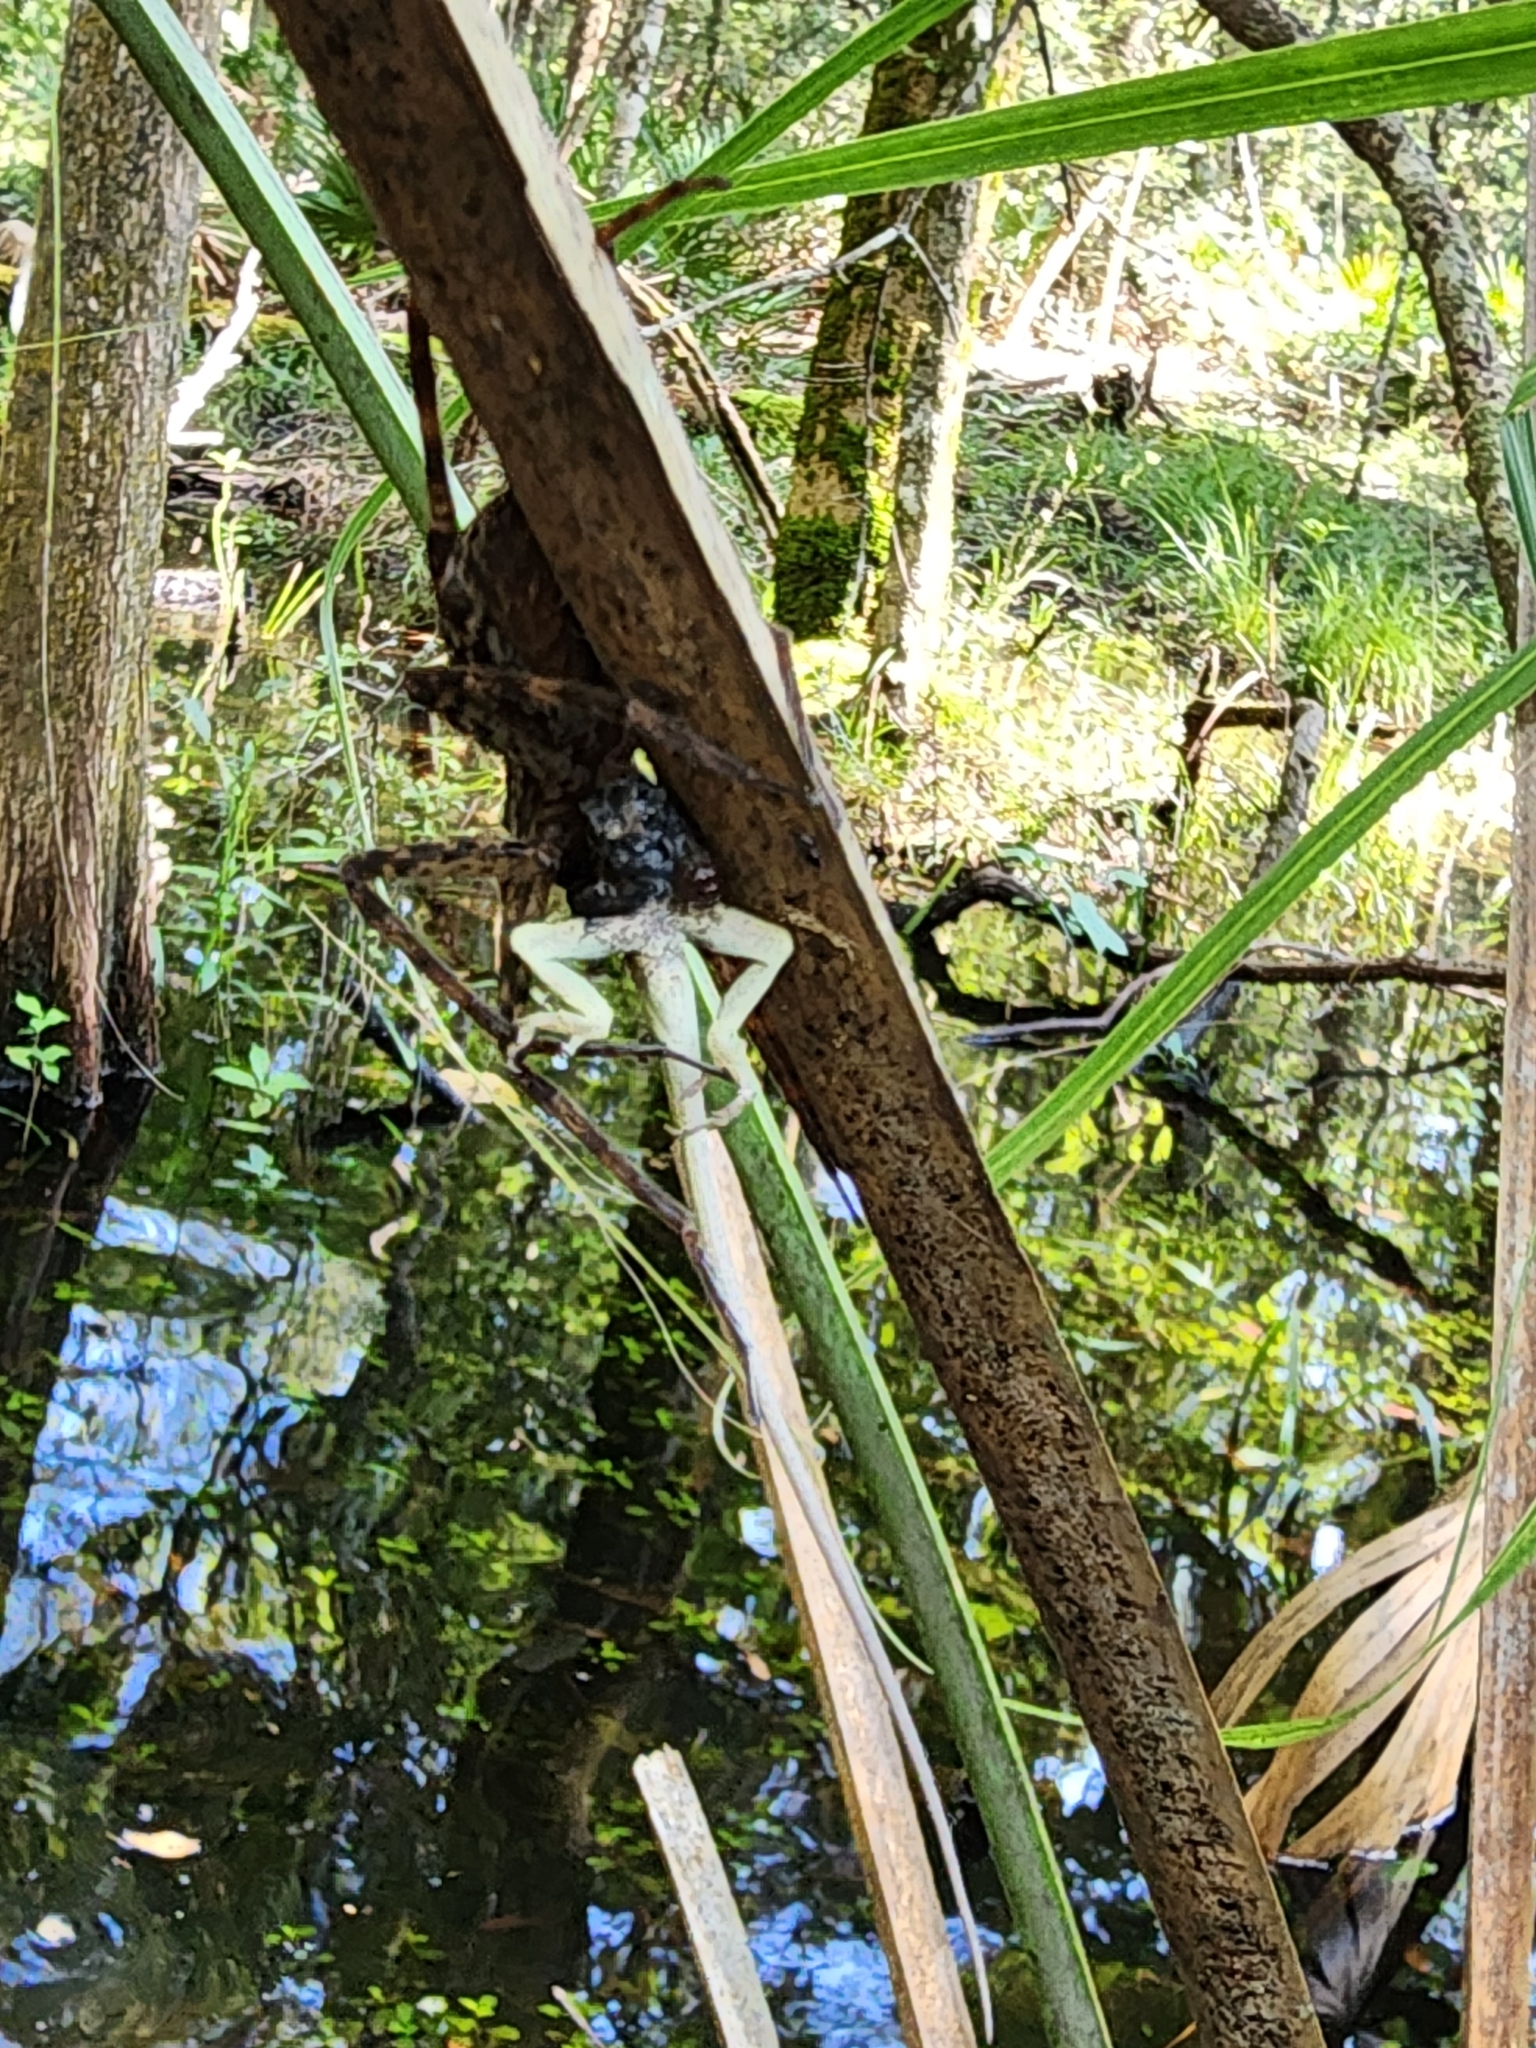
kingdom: Animalia
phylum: Arthropoda
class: Arachnida
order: Araneae
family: Pisauridae
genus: Dolomedes
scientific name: Dolomedes
